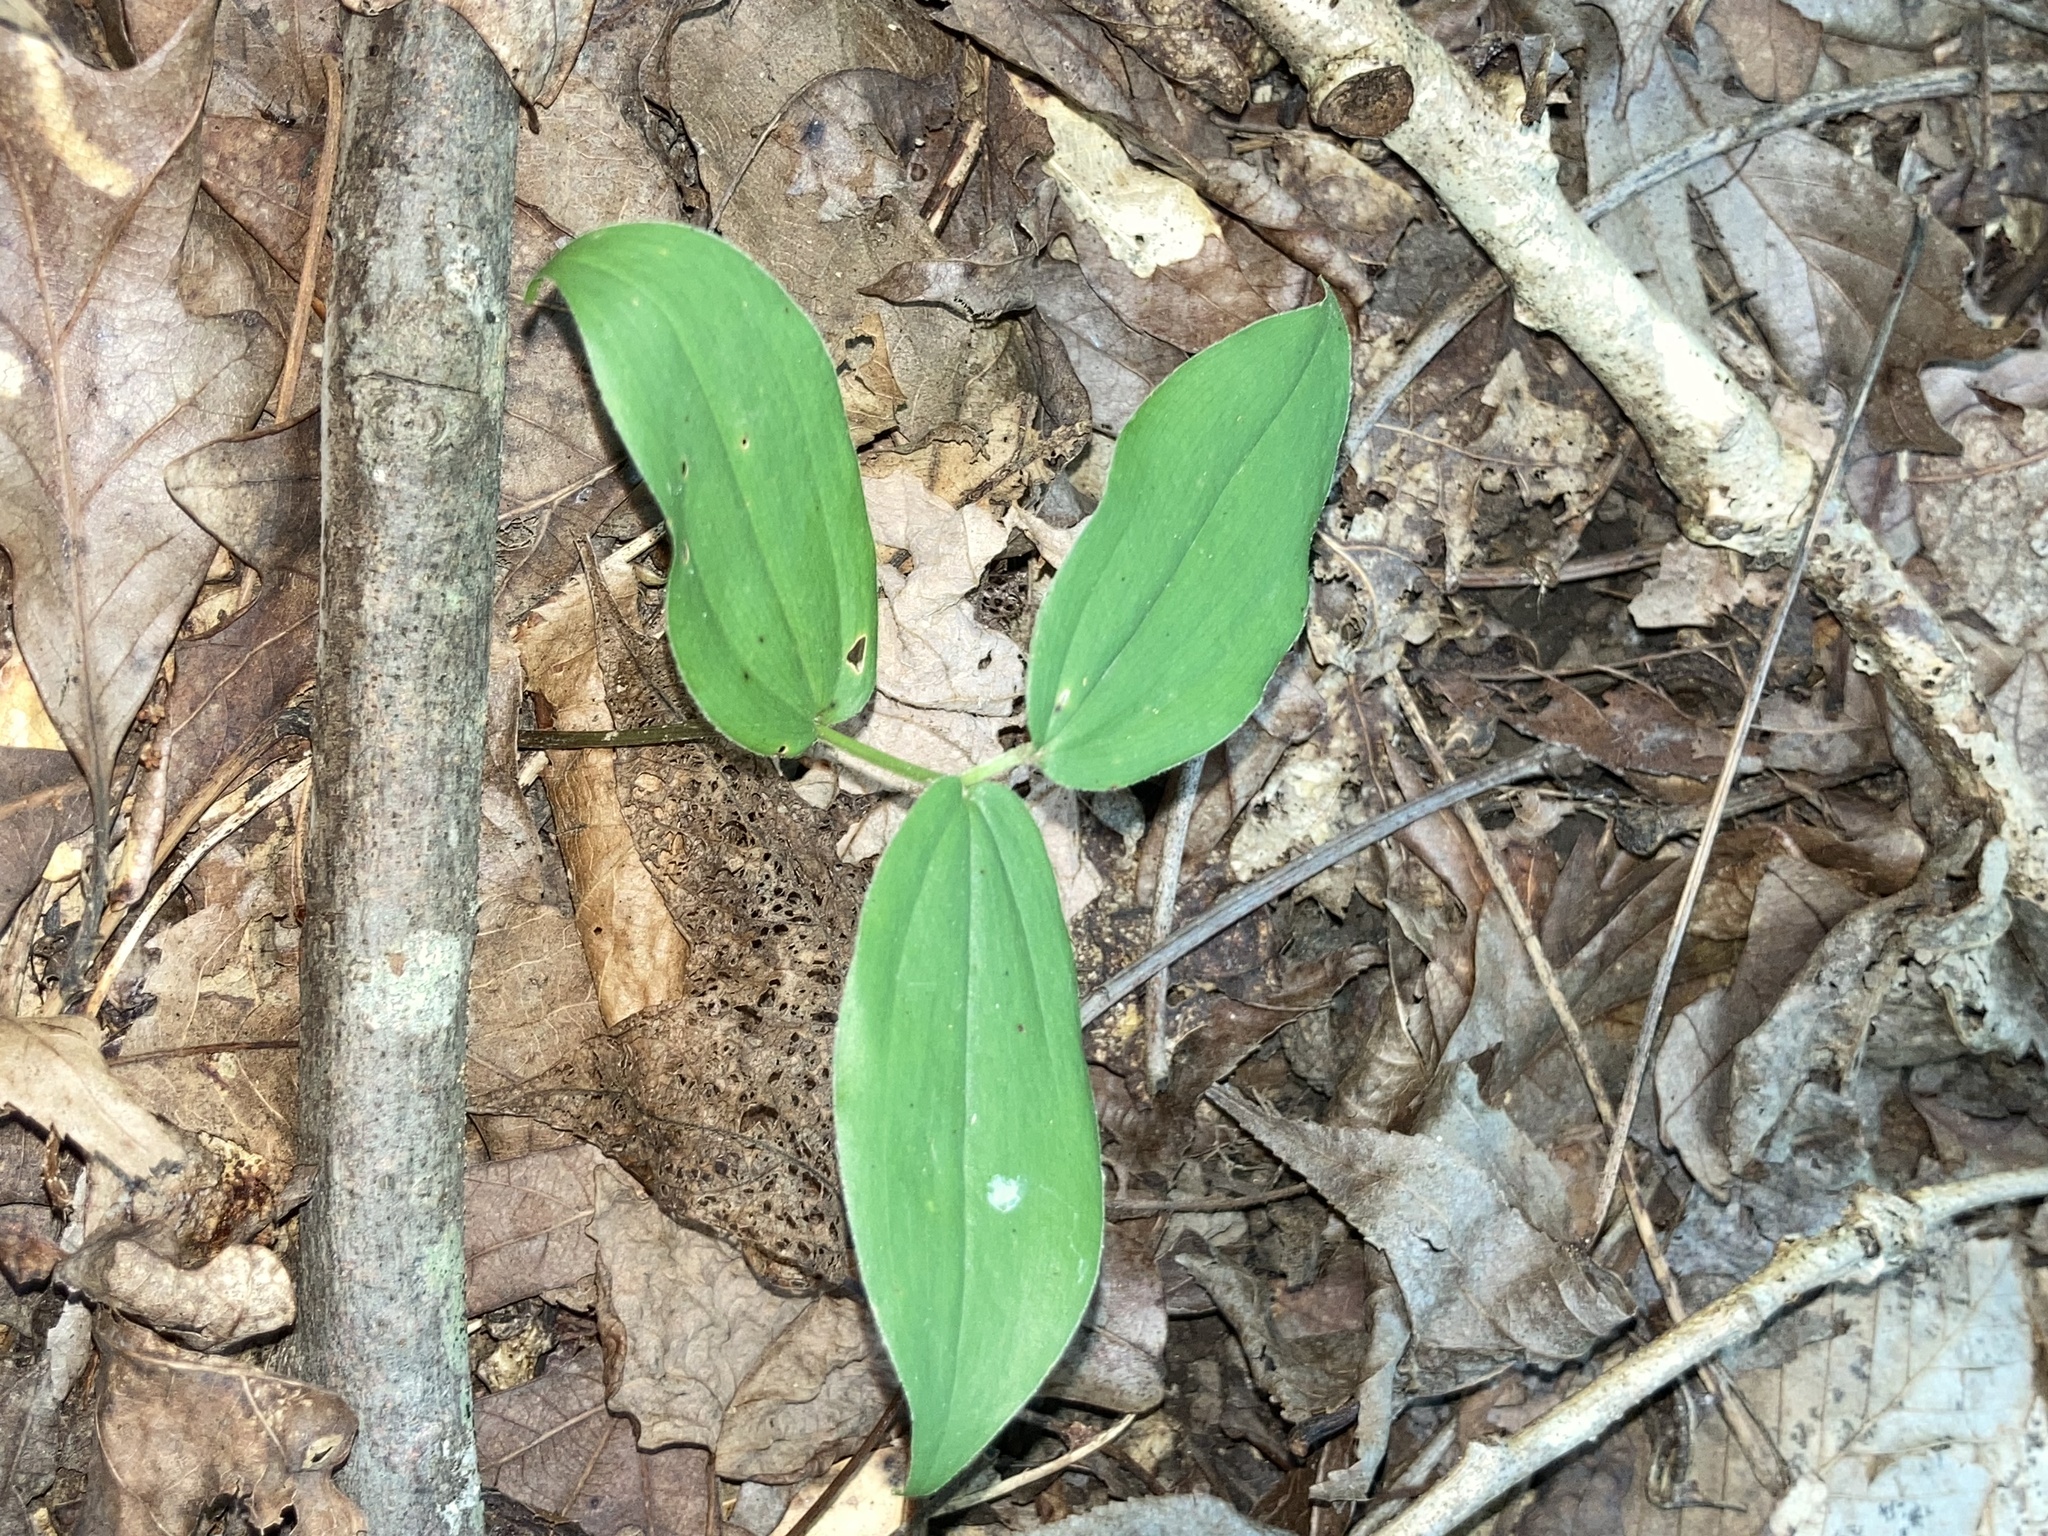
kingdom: Plantae
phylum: Tracheophyta
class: Liliopsida
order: Asparagales
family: Asparagaceae
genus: Maianthemum
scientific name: Maianthemum racemosum
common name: False spikenard
